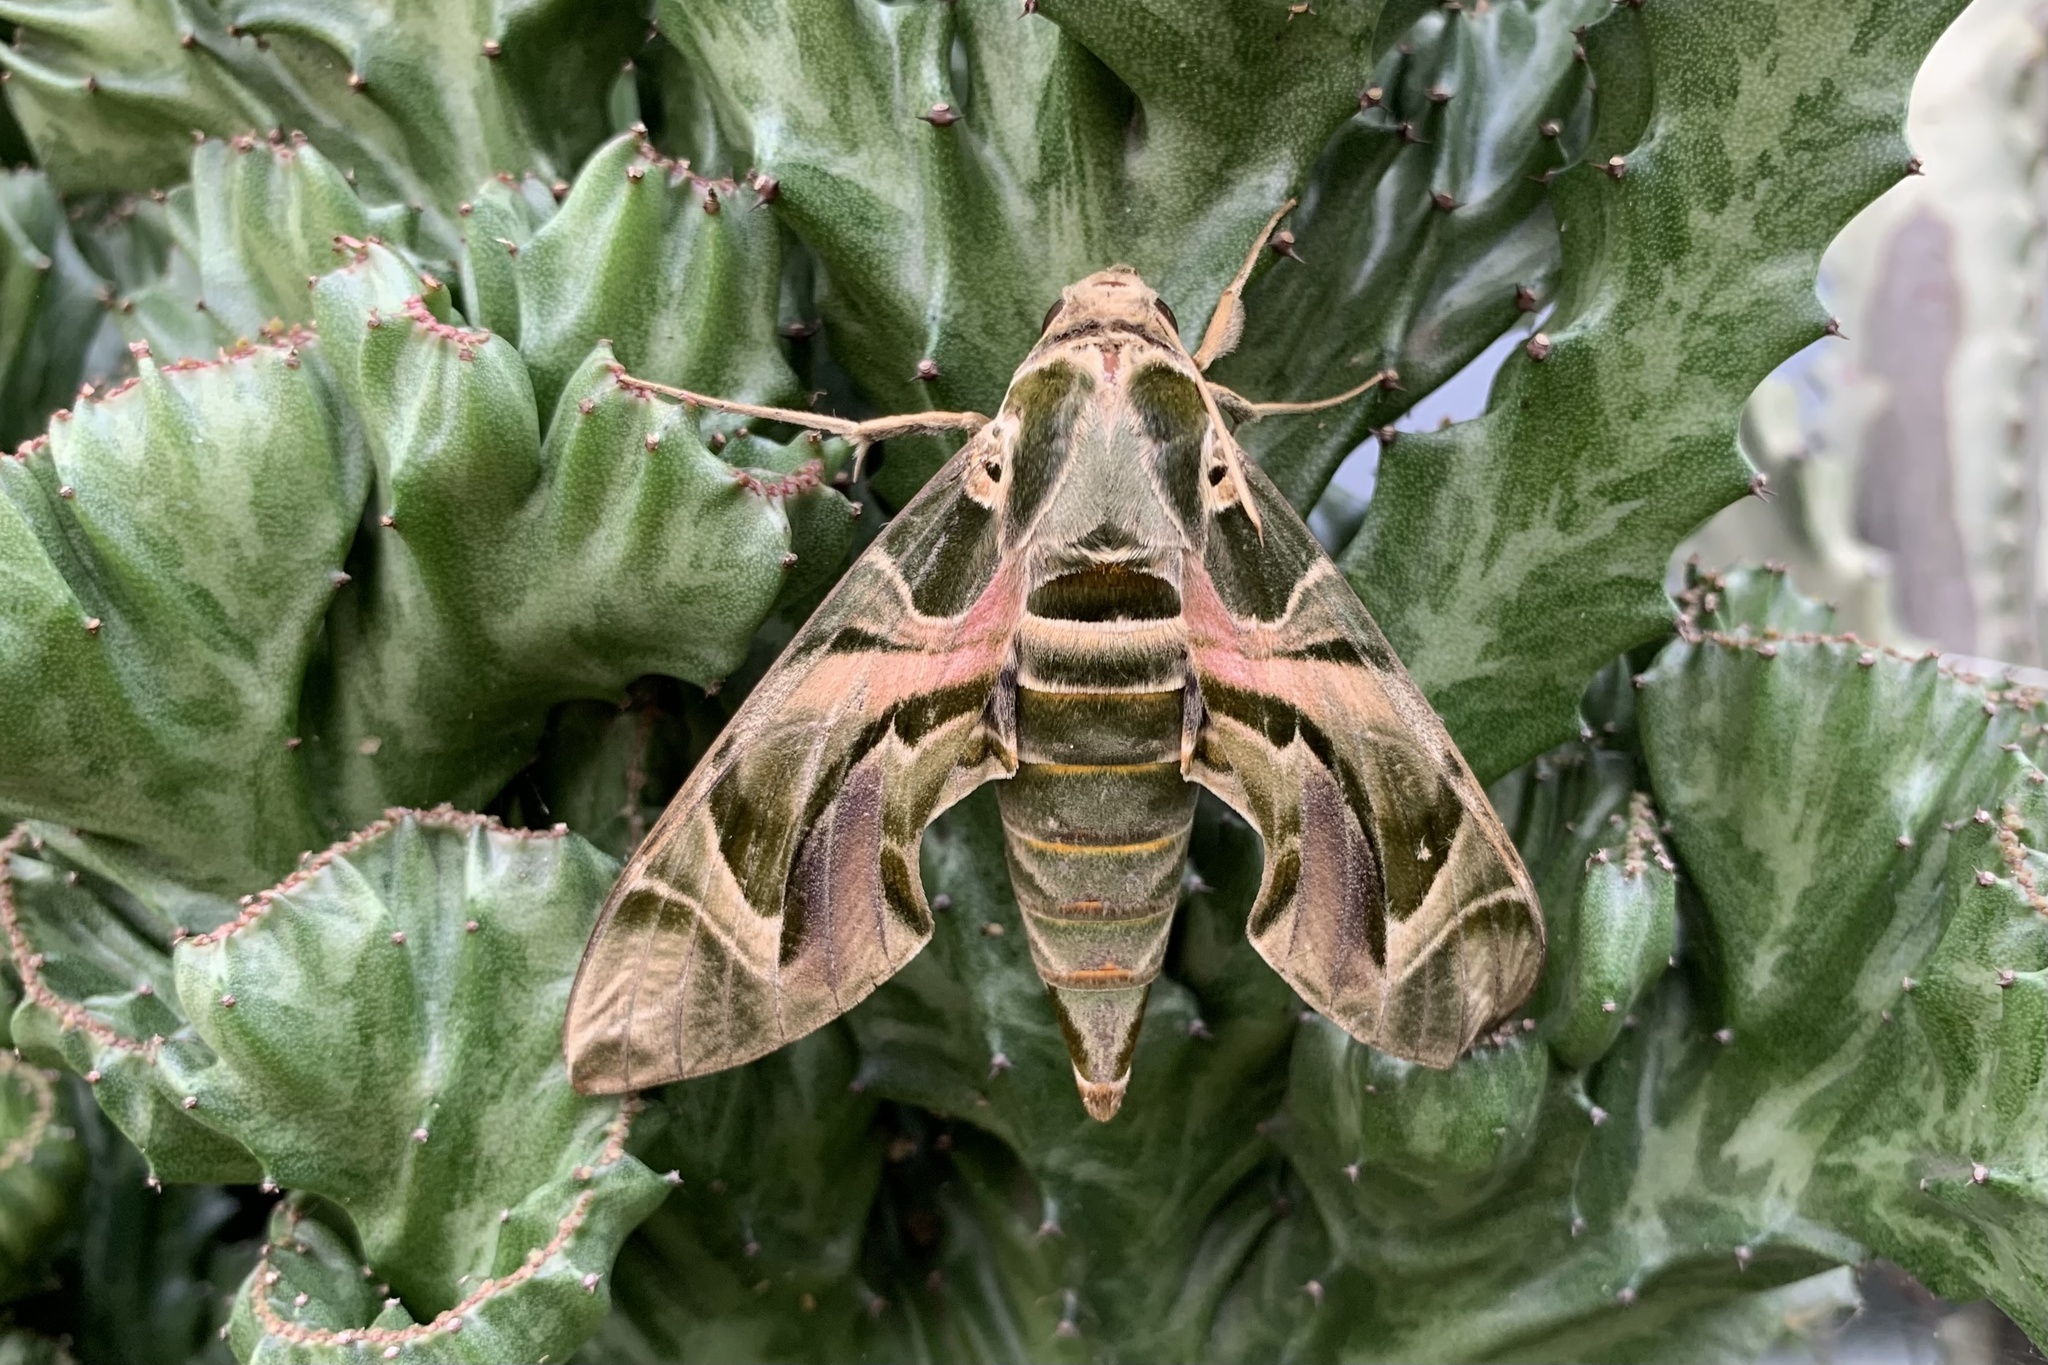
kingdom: Animalia
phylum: Arthropoda
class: Insecta
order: Lepidoptera
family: Sphingidae
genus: Daphnis
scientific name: Daphnis nerii
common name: Oleander hawk-moth
